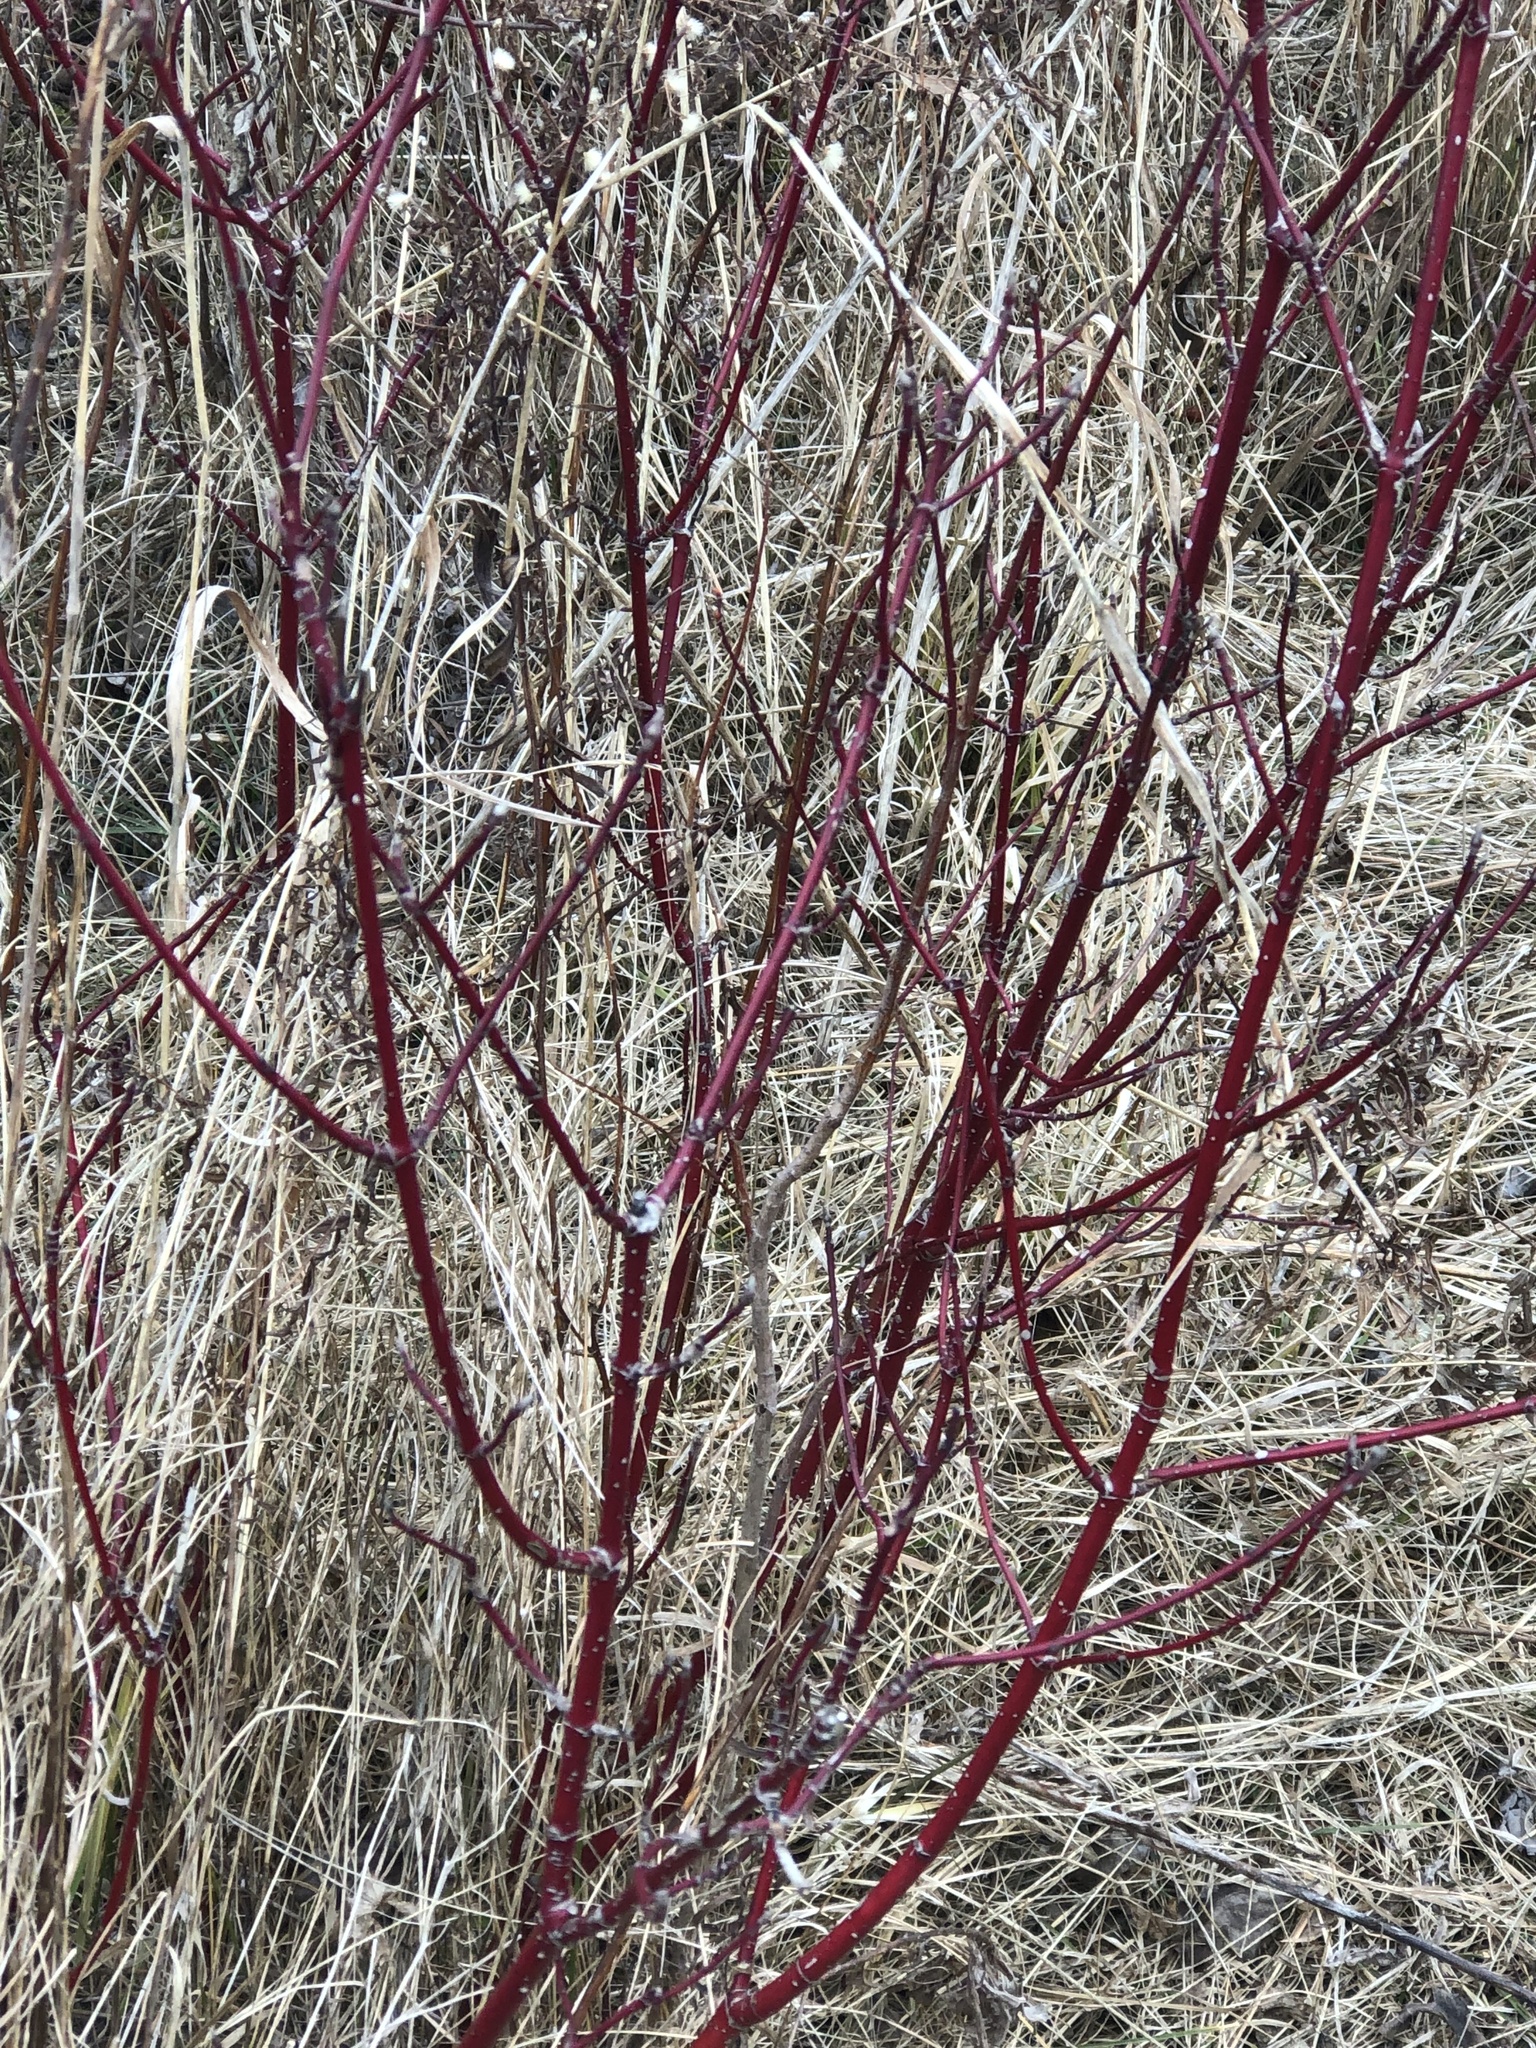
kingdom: Plantae
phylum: Tracheophyta
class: Magnoliopsida
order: Cornales
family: Cornaceae
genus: Cornus
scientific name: Cornus sericea
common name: Red-osier dogwood
